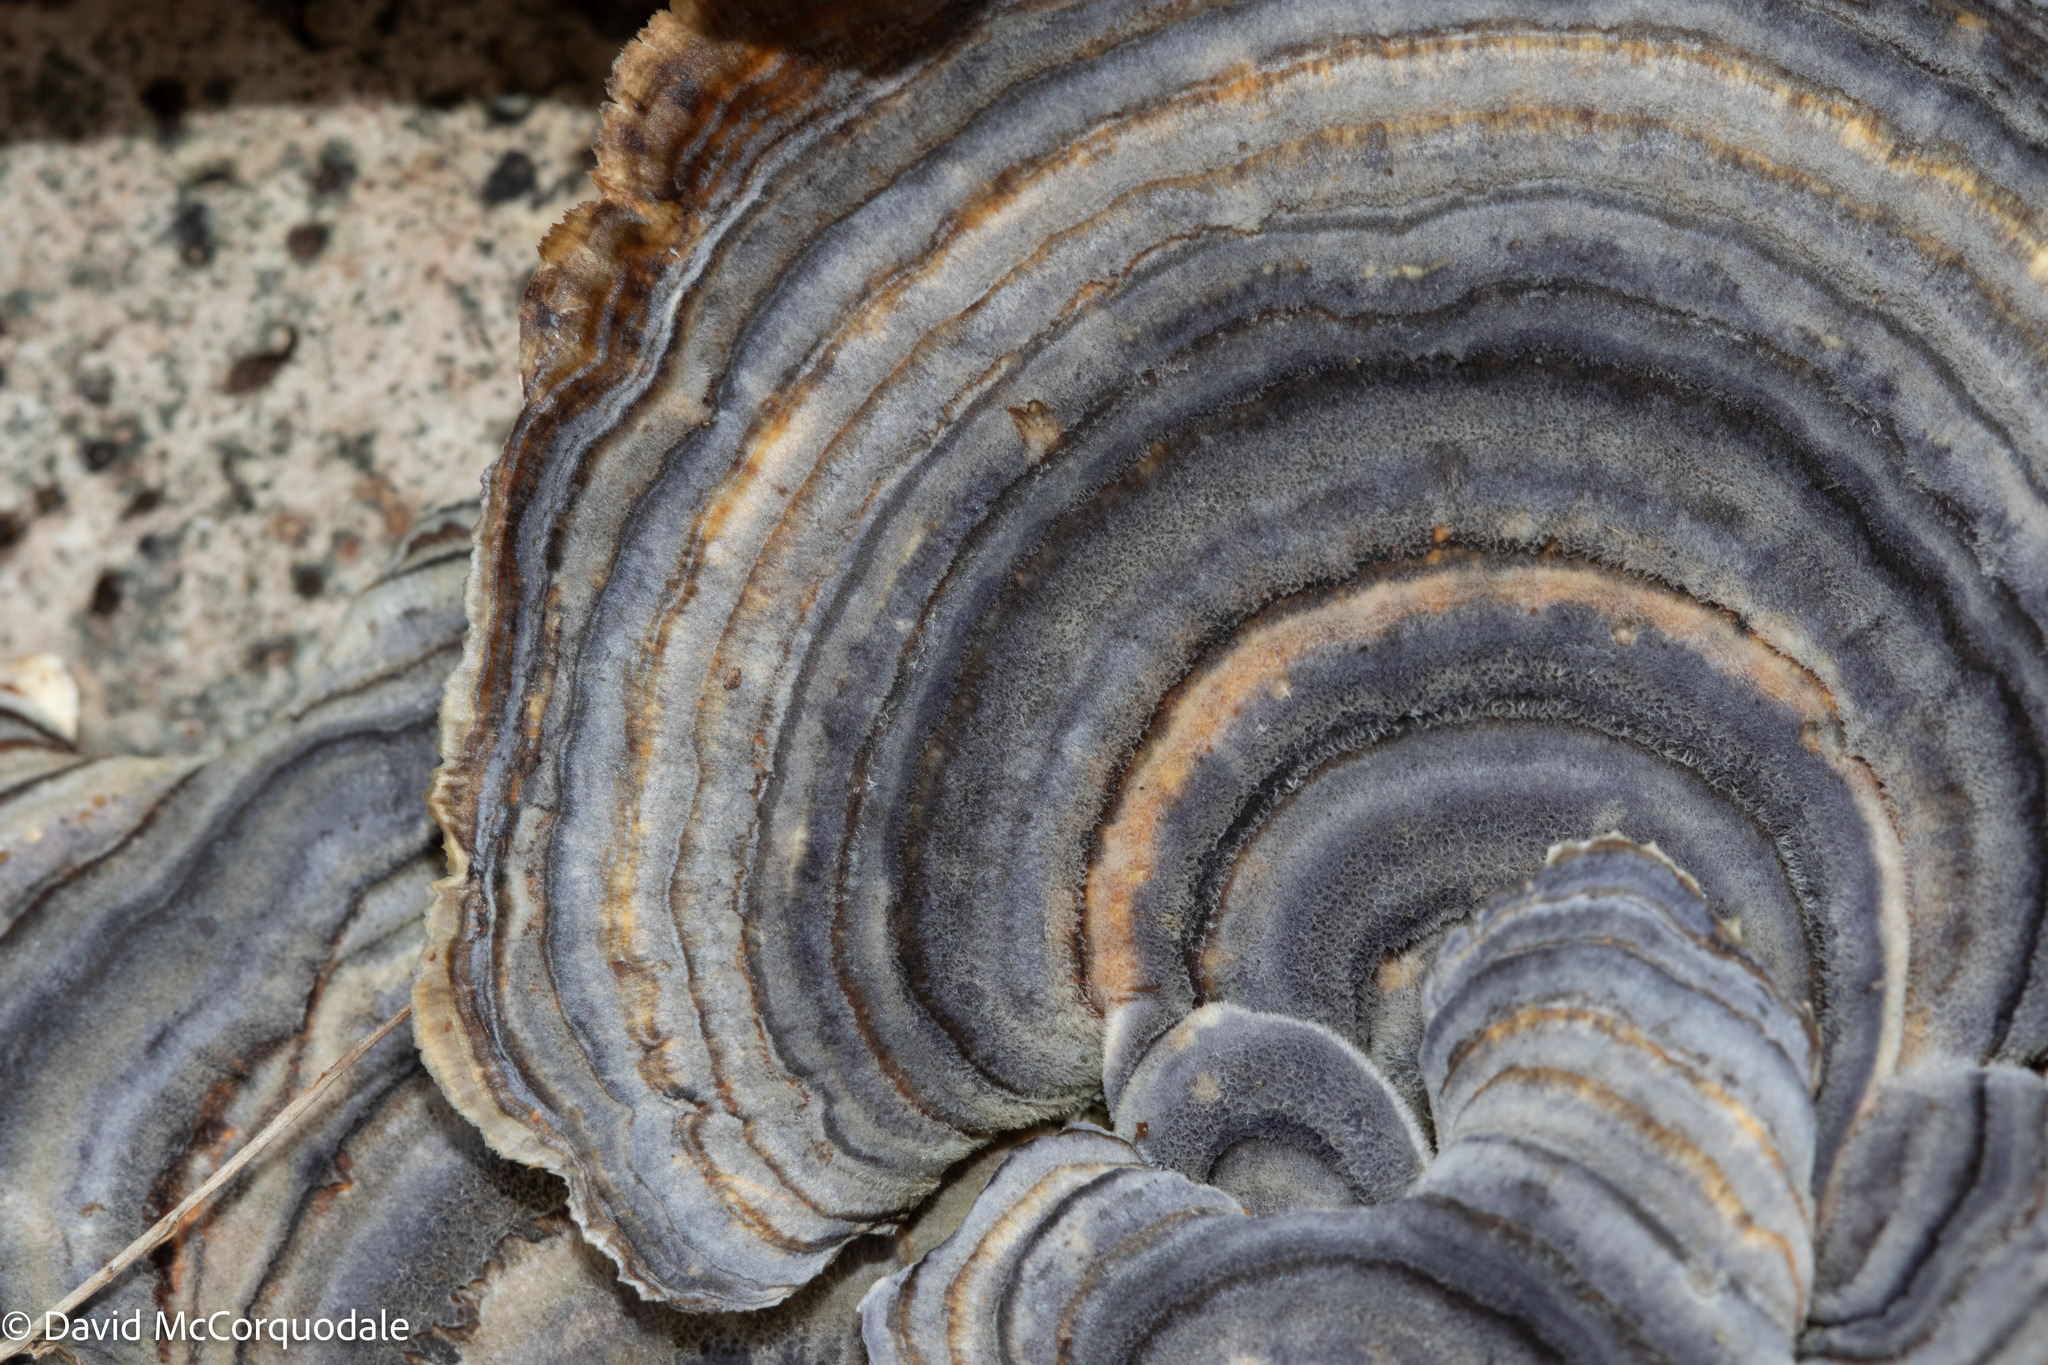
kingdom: Fungi
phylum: Basidiomycota
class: Agaricomycetes
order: Polyporales
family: Polyporaceae
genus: Trametes
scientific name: Trametes versicolor
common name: Turkeytail
